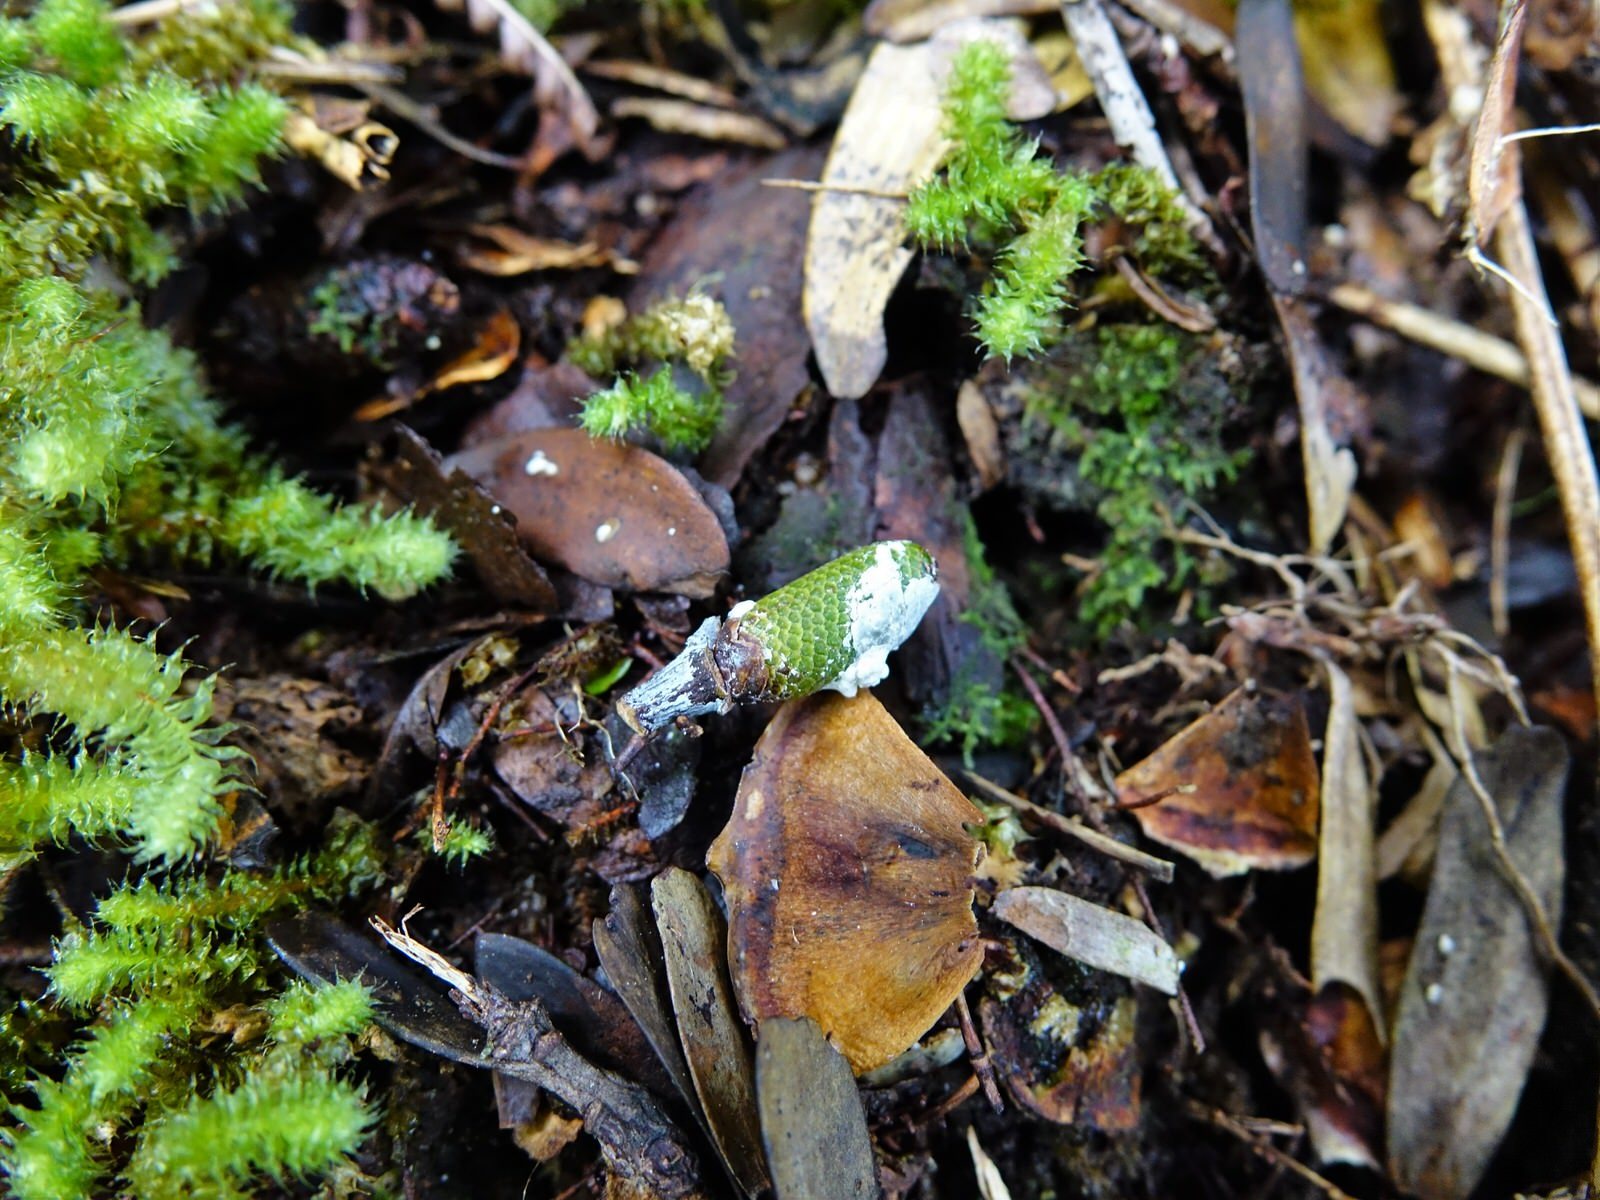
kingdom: Plantae
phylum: Tracheophyta
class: Pinopsida
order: Pinales
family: Araucariaceae
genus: Agathis
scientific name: Agathis australis
